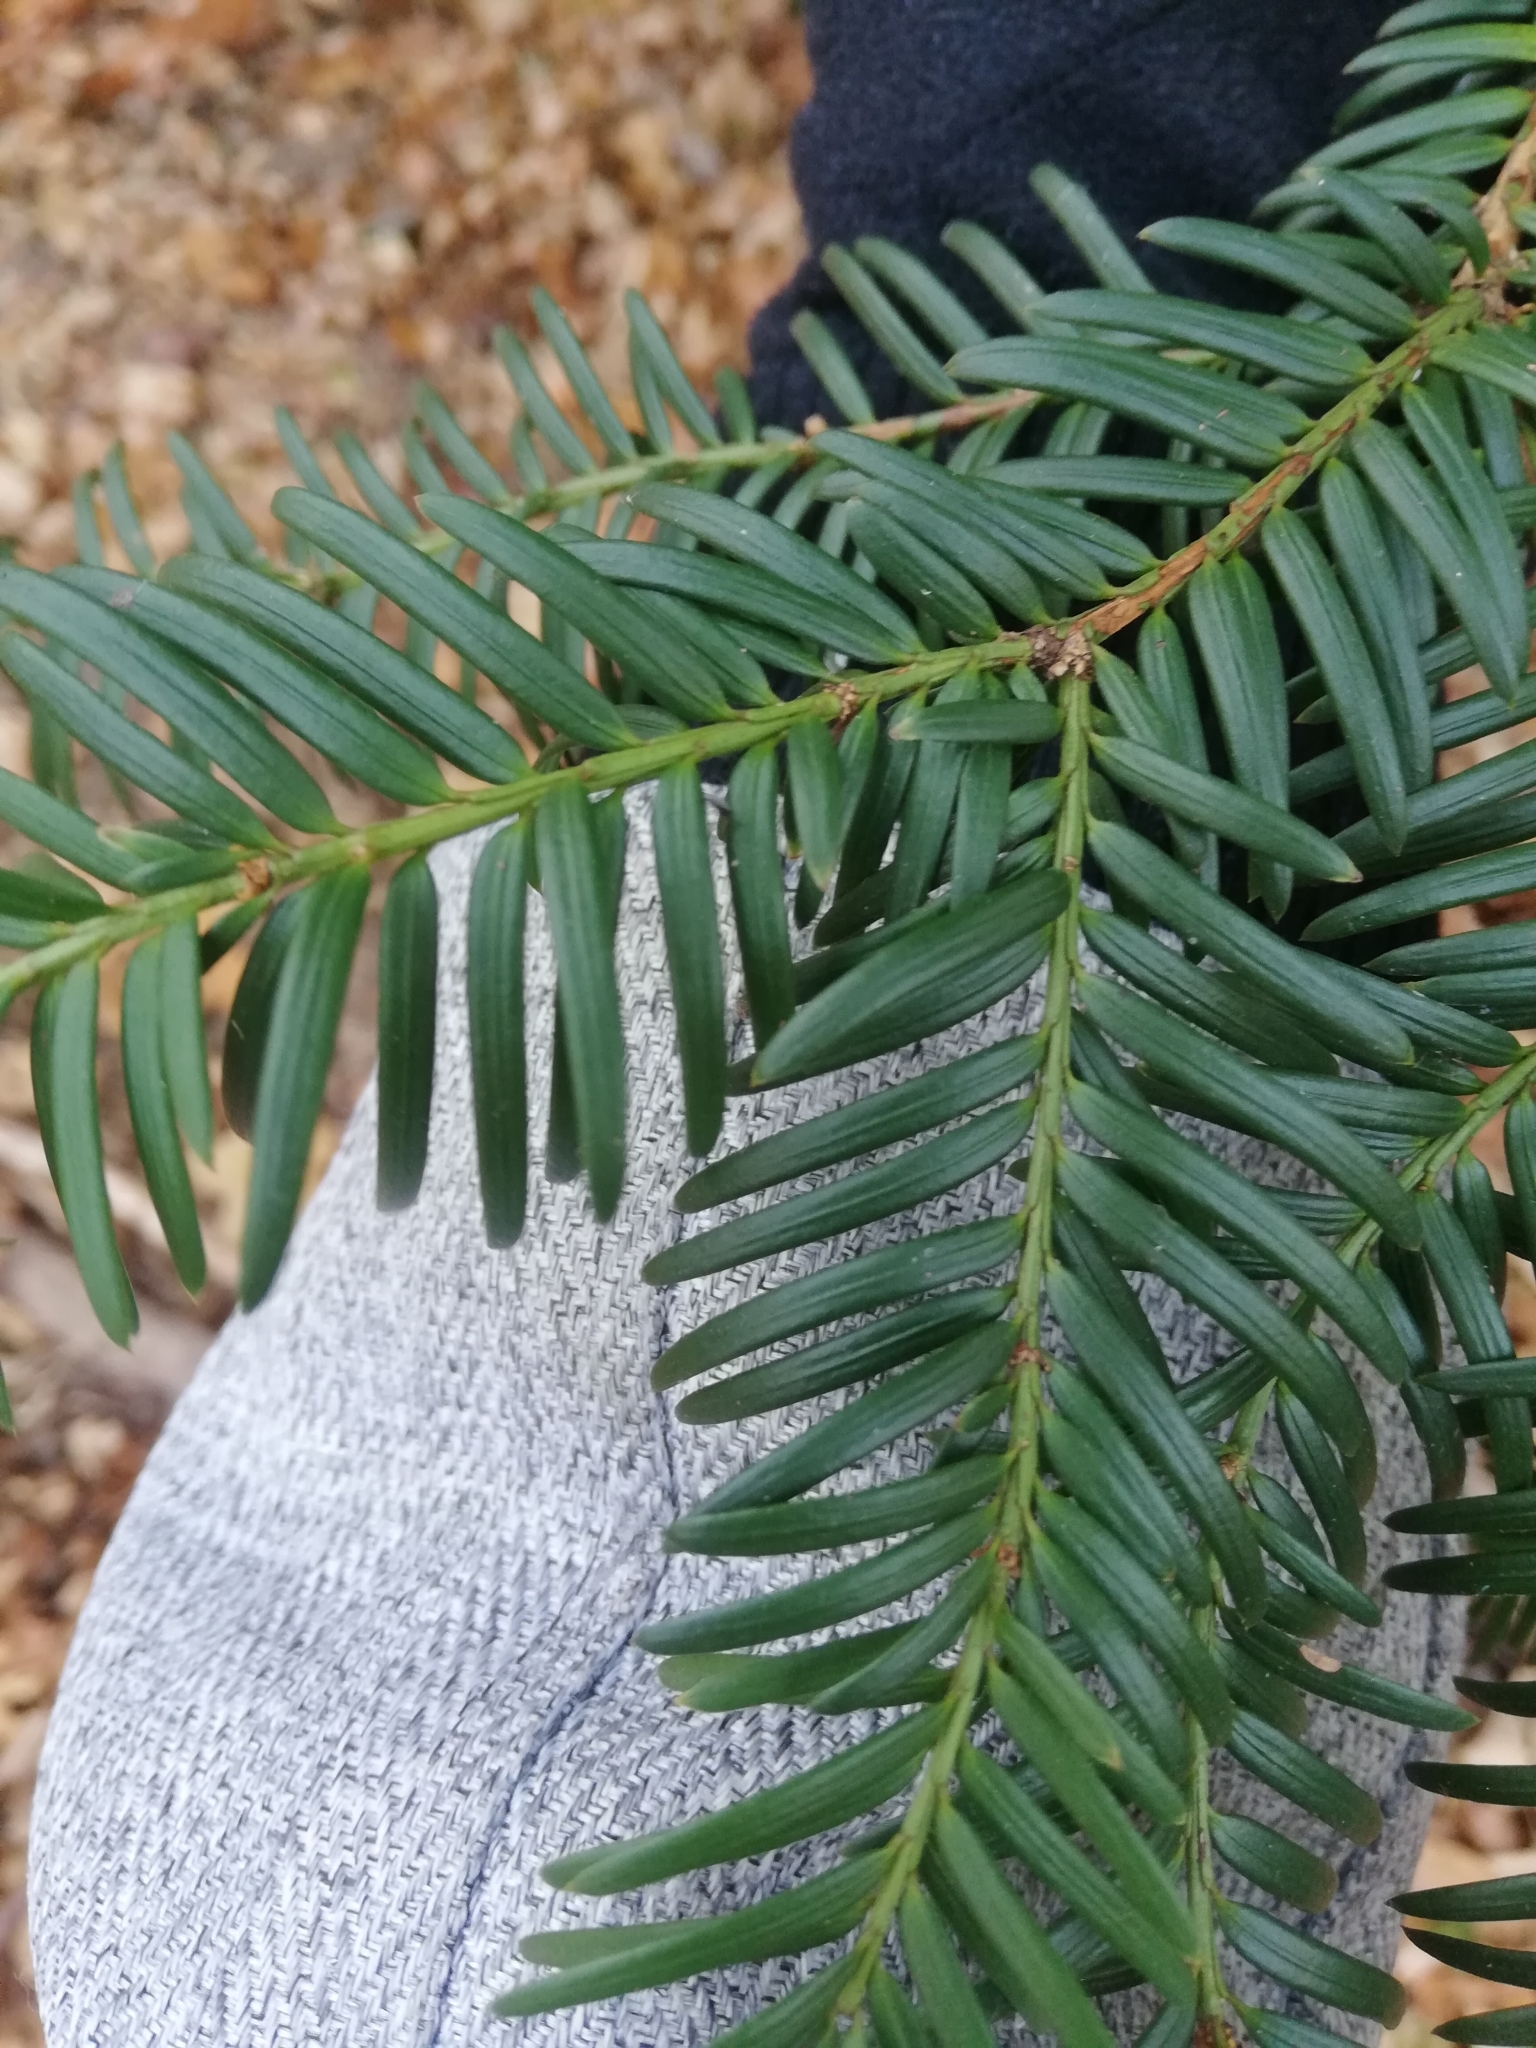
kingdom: Plantae
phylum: Tracheophyta
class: Pinopsida
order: Pinales
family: Taxaceae
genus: Taxus
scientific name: Taxus baccata
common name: Yew
